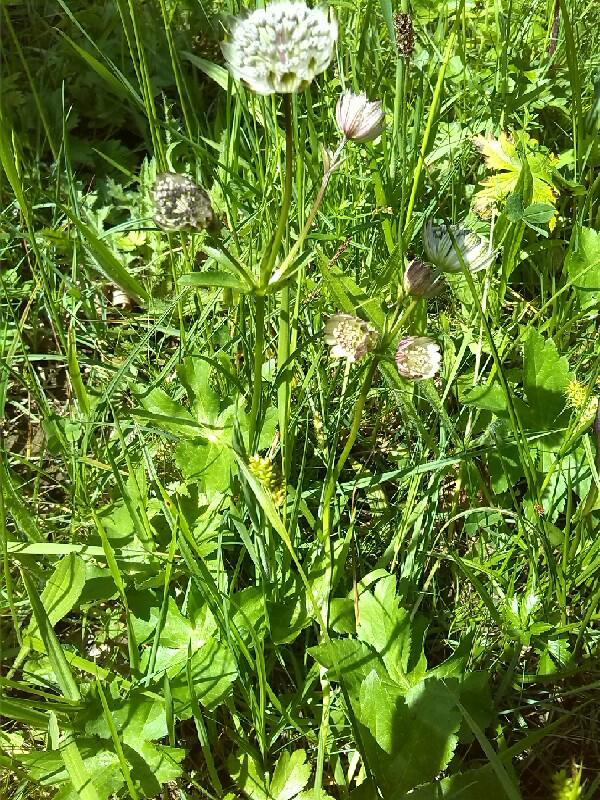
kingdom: Plantae
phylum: Tracheophyta
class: Magnoliopsida
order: Apiales
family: Apiaceae
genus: Astrantia
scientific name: Astrantia major
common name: Greater masterwort
